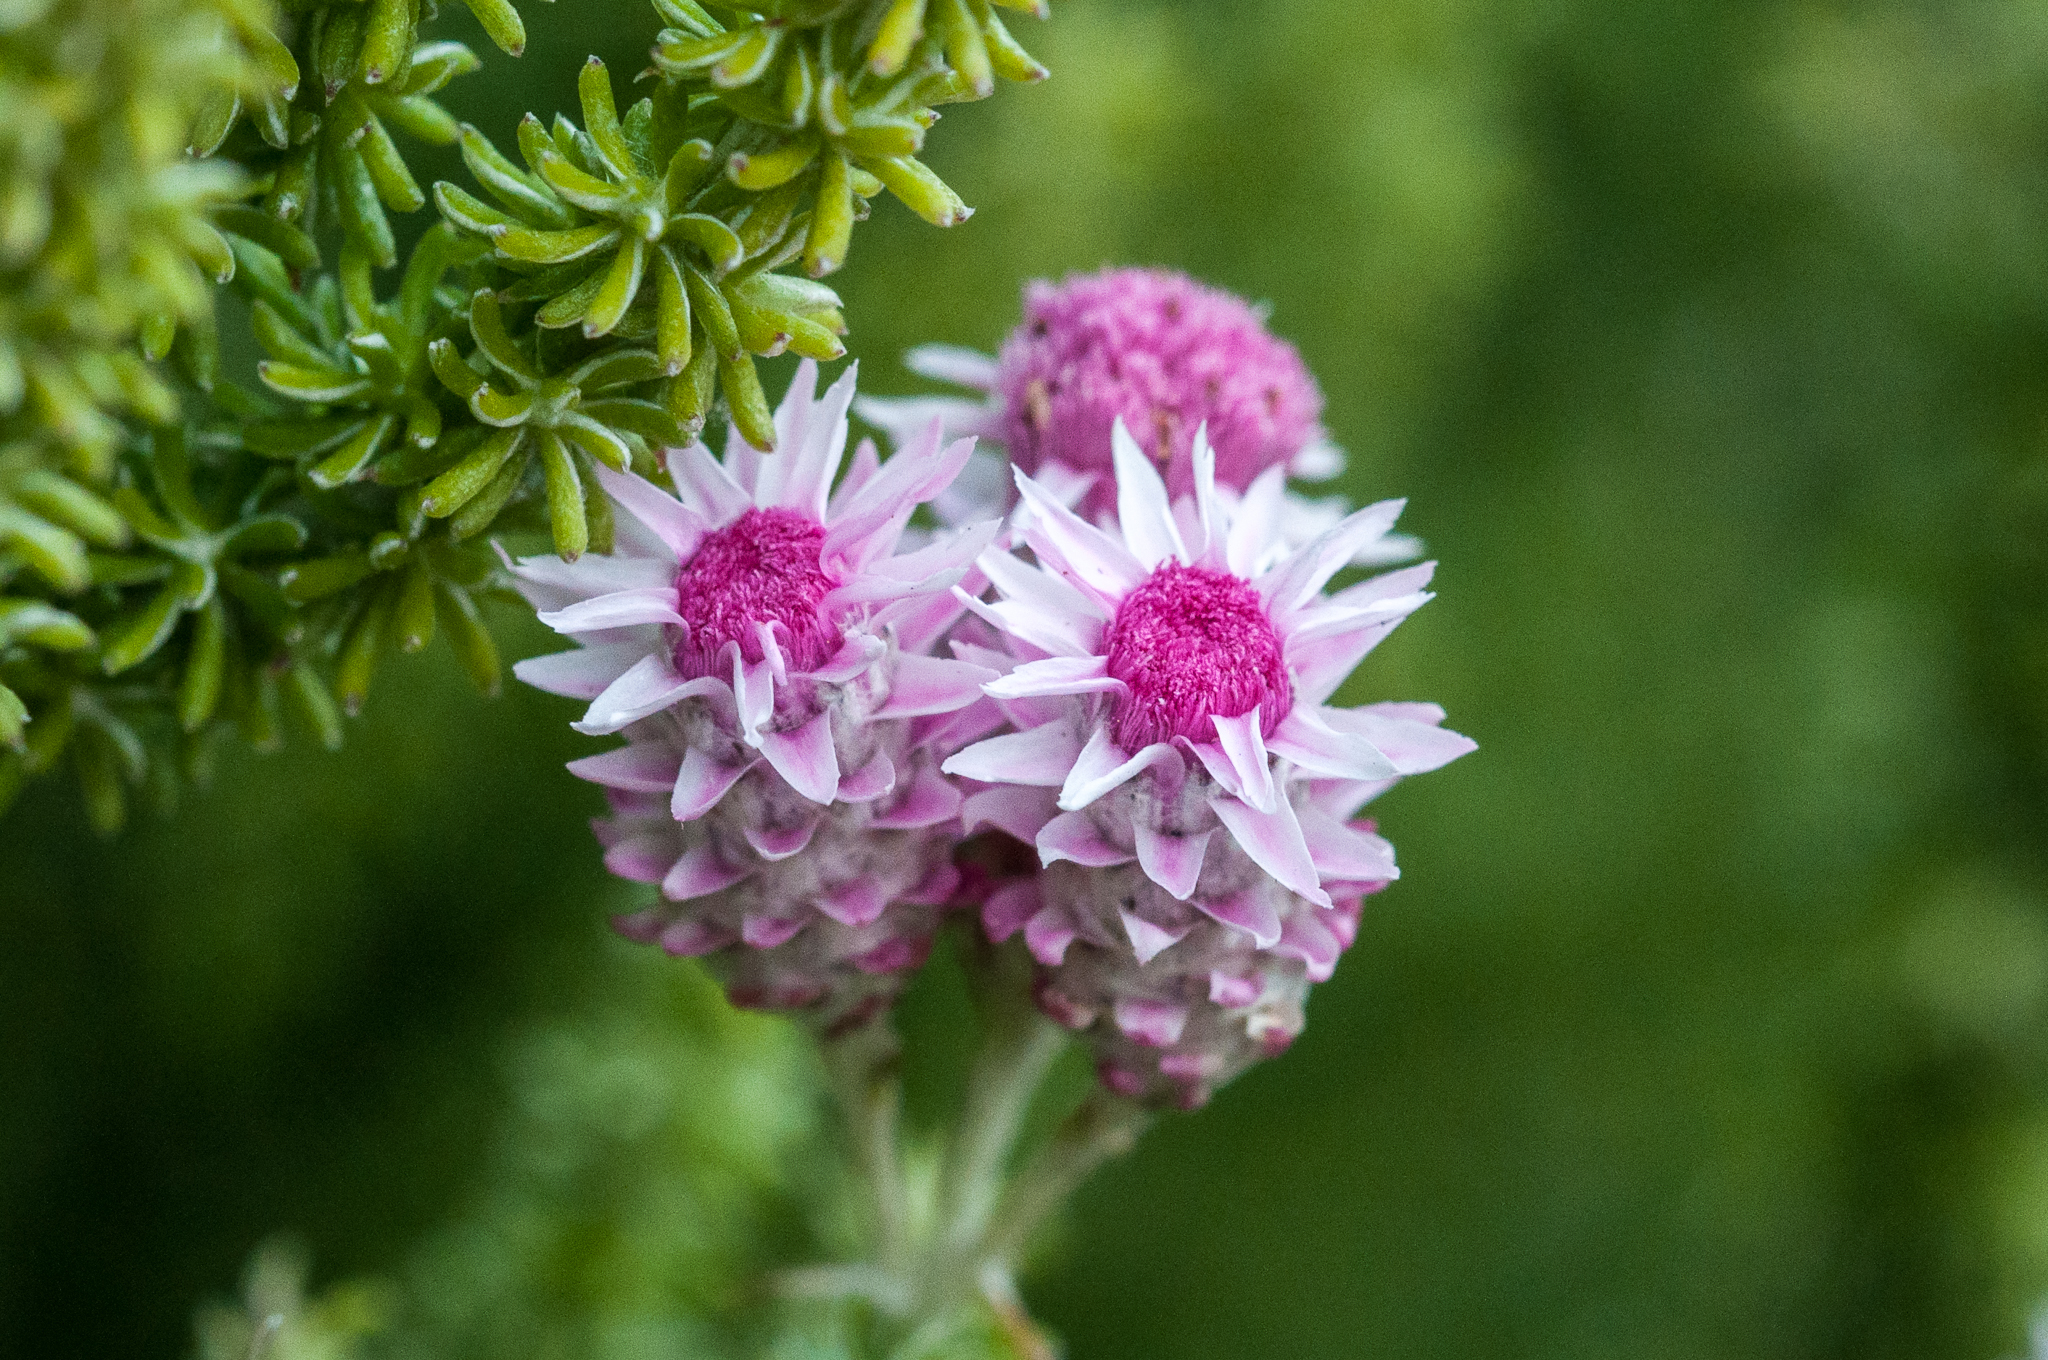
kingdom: Plantae
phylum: Tracheophyta
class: Magnoliopsida
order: Asterales
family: Asteraceae
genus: Lachnospermum
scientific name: Lachnospermum umbellatum
